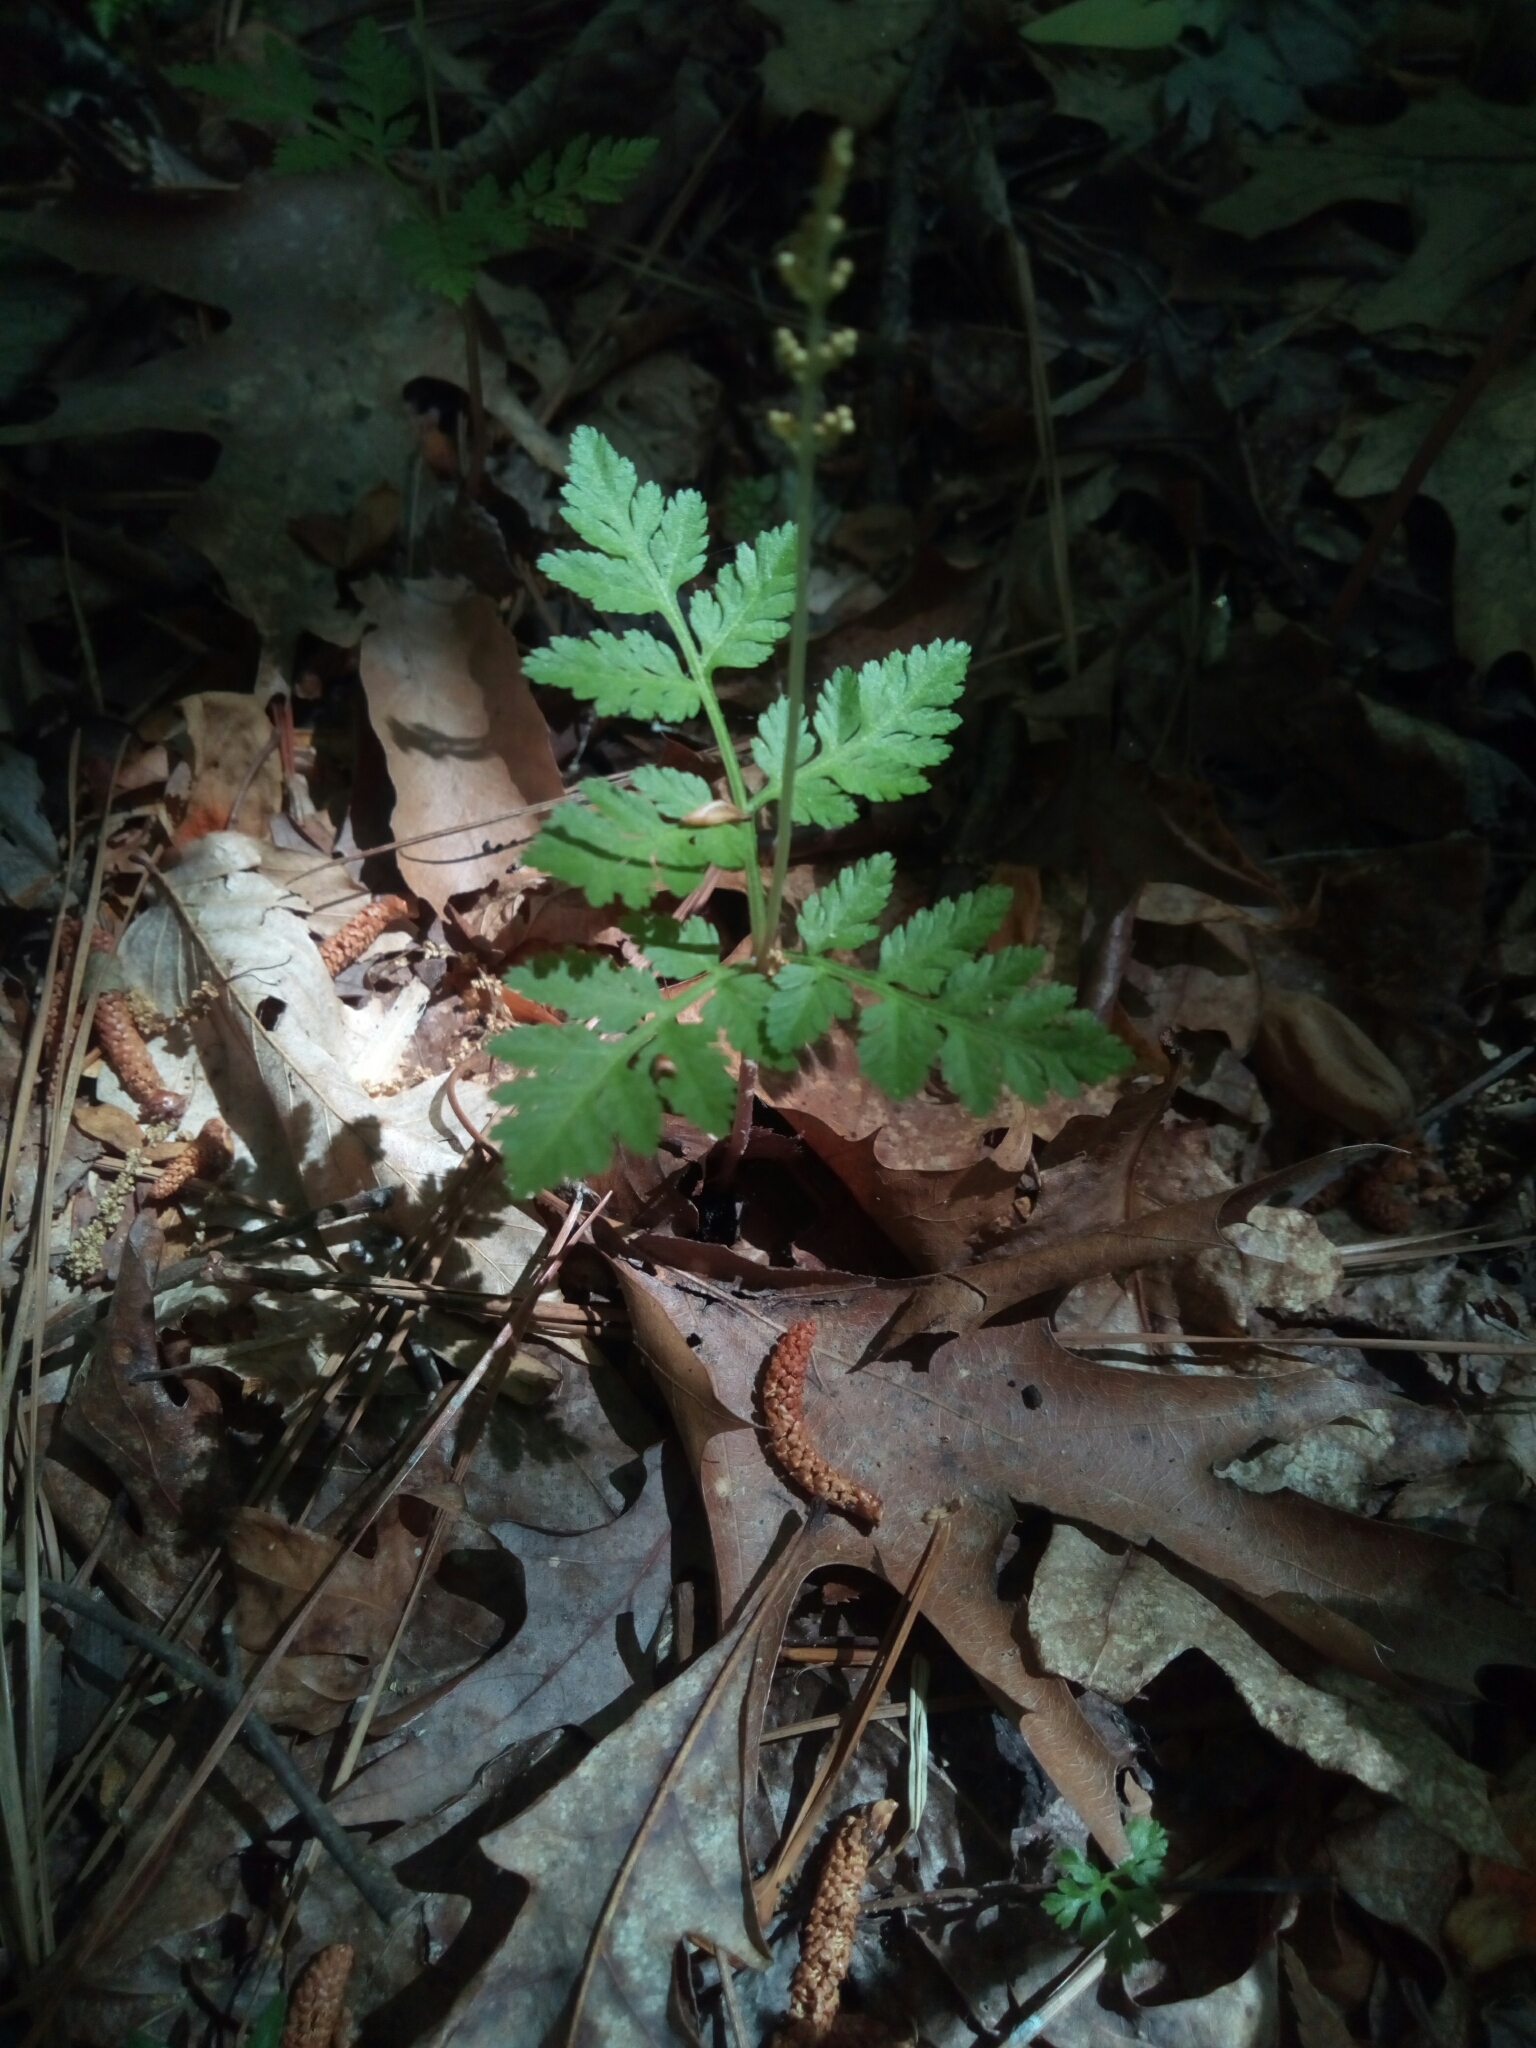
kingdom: Plantae
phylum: Tracheophyta
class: Polypodiopsida
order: Ophioglossales
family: Ophioglossaceae
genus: Botrypus
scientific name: Botrypus virginianus
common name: Common grapefern
